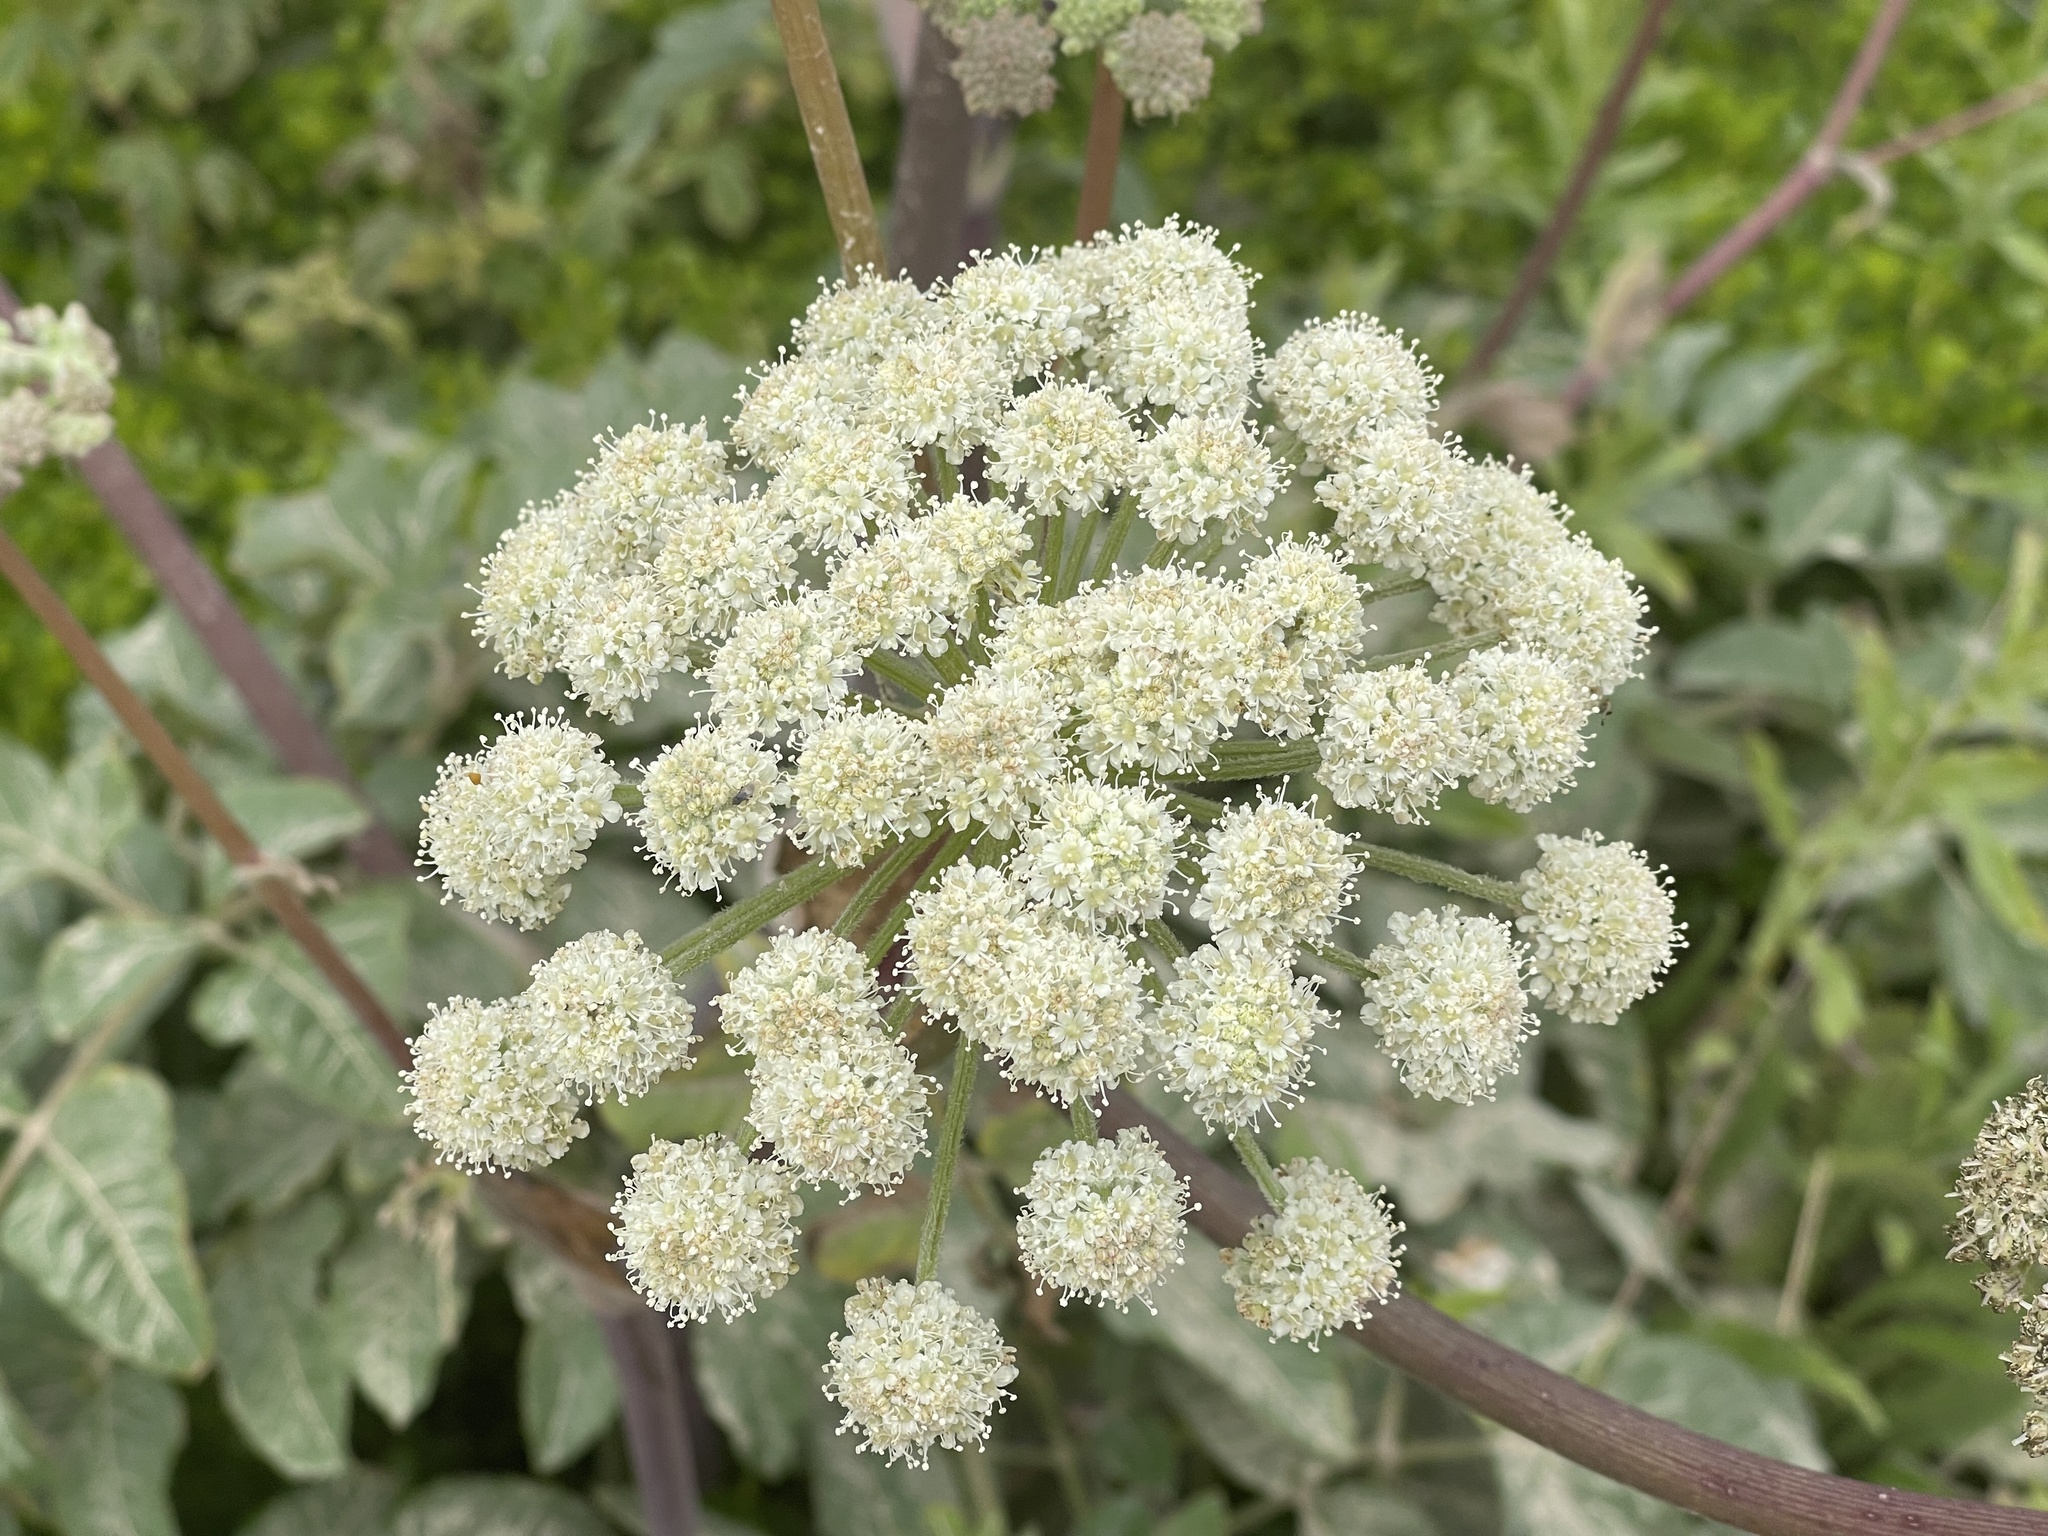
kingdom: Plantae
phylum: Tracheophyta
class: Magnoliopsida
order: Apiales
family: Apiaceae
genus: Angelica
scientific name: Angelica hendersonii
